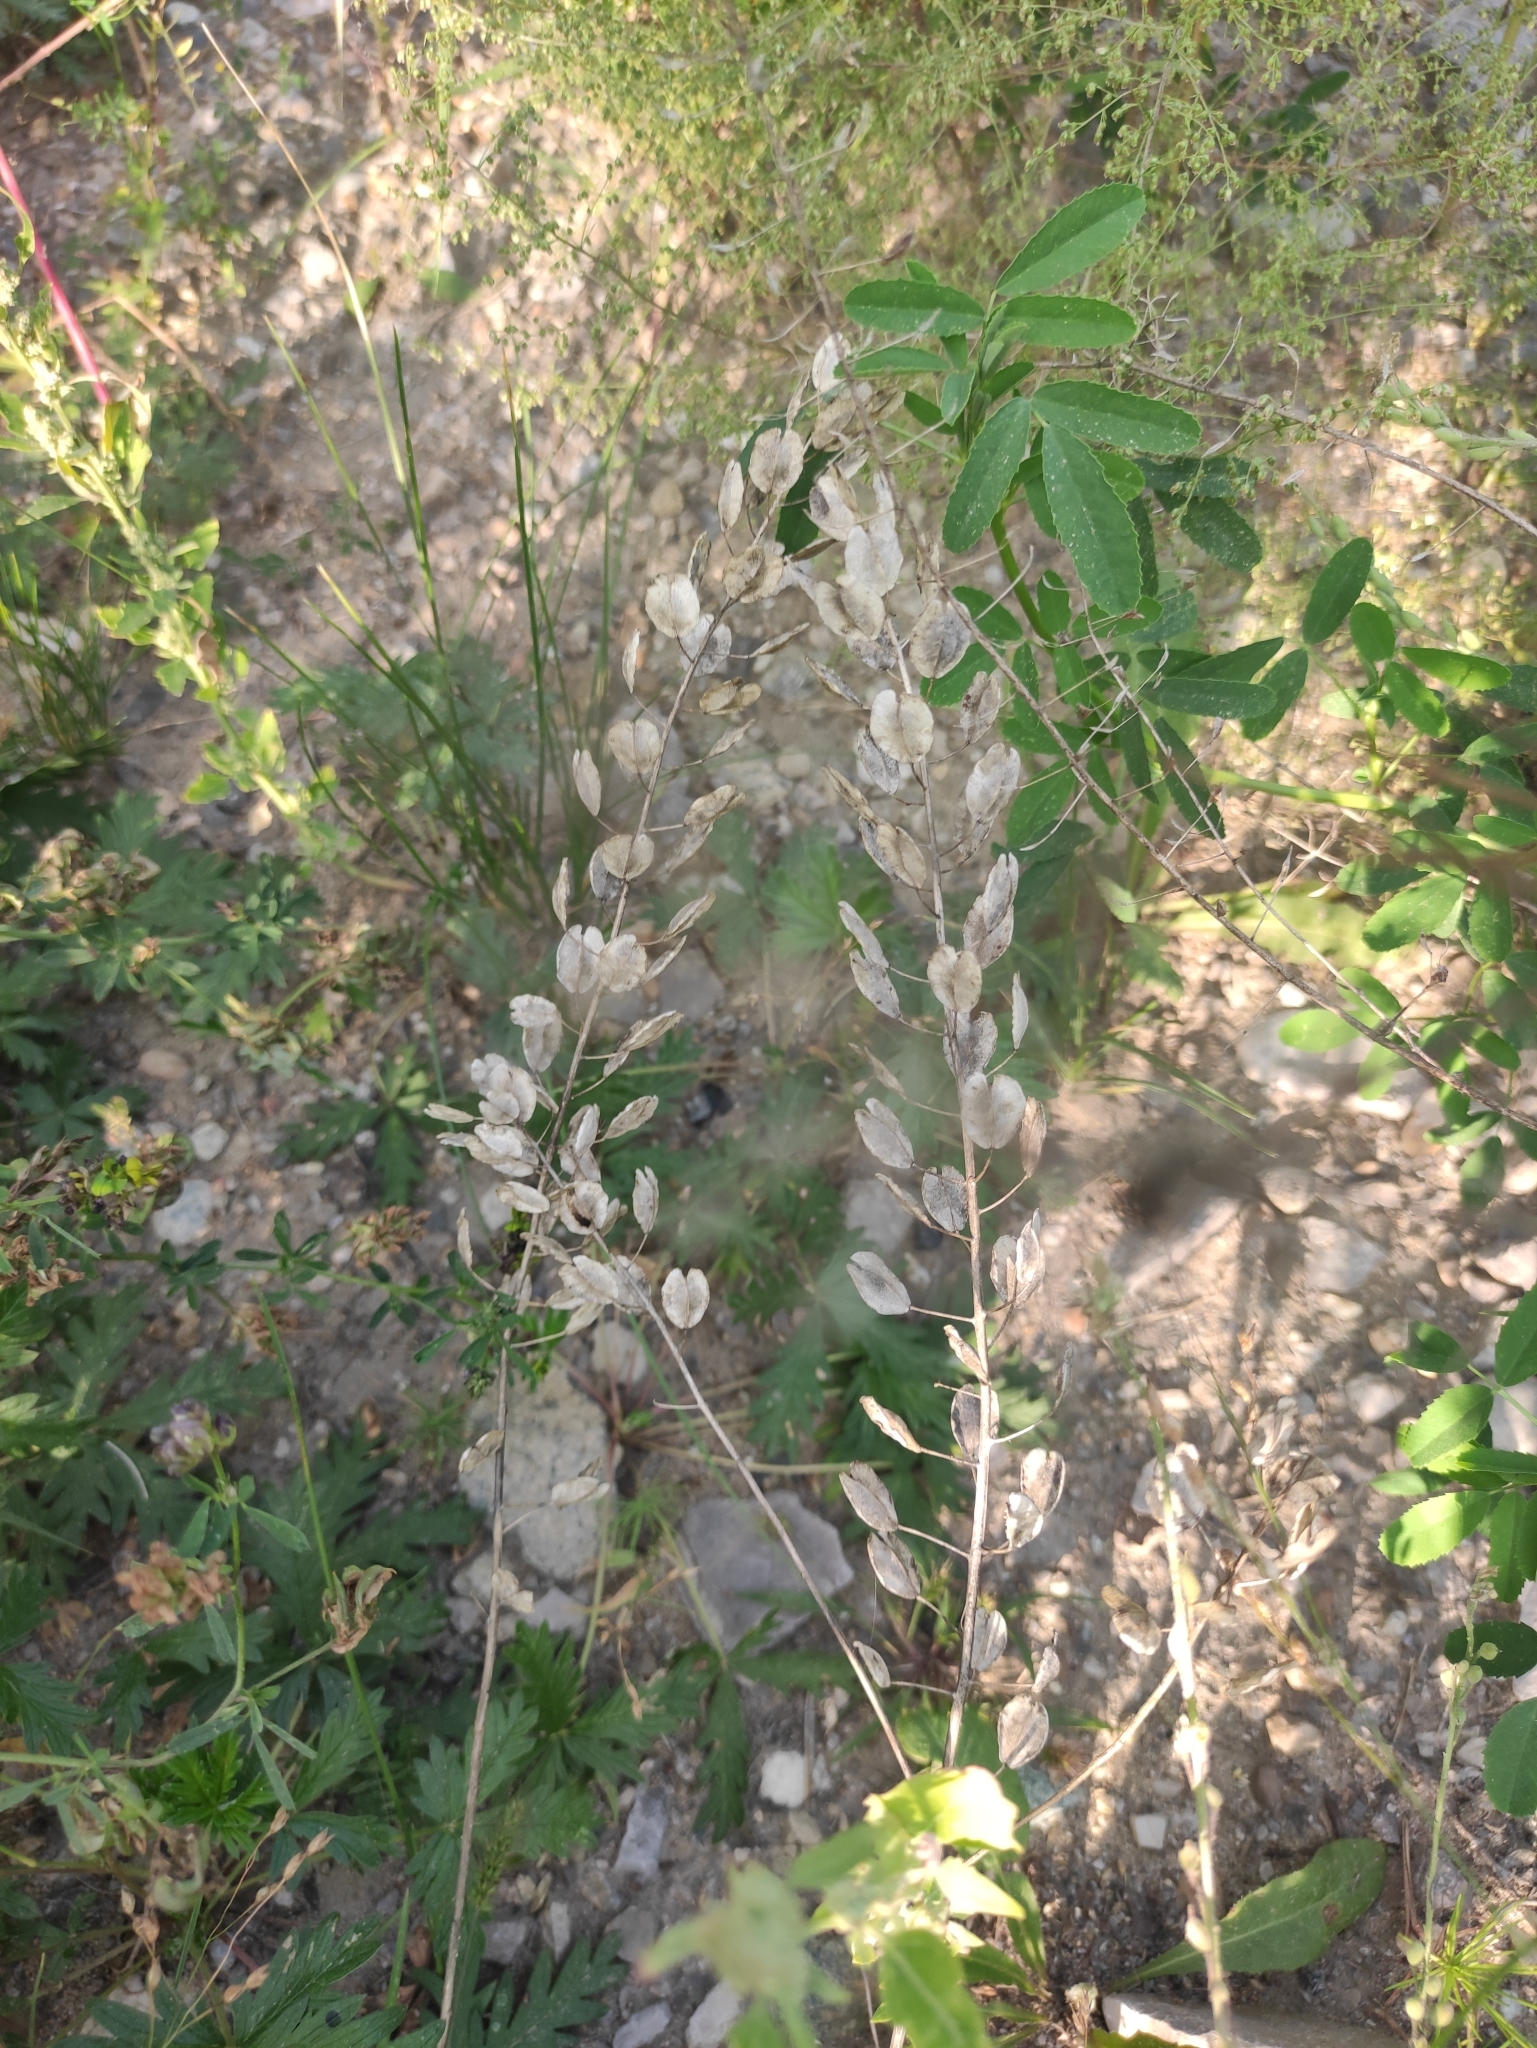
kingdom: Plantae
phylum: Tracheophyta
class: Magnoliopsida
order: Brassicales
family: Brassicaceae
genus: Thlaspi
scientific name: Thlaspi arvense
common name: Field pennycress
